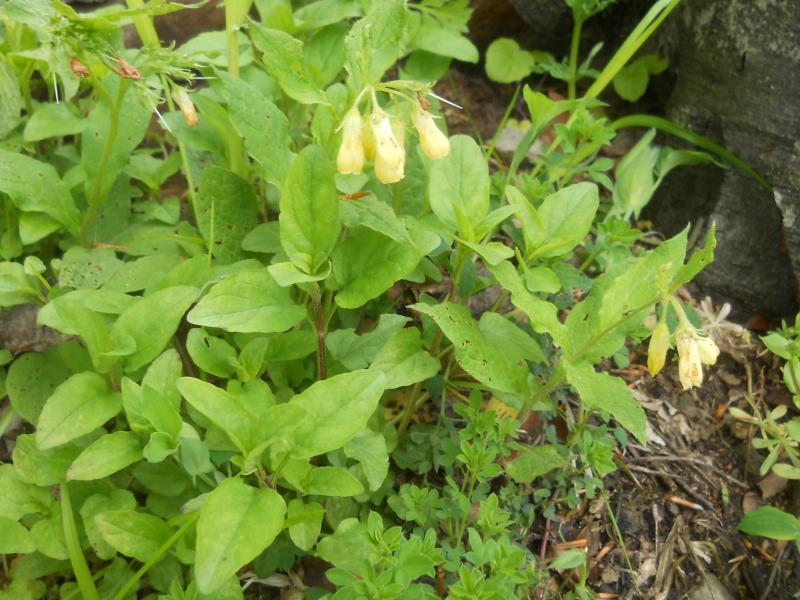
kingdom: Plantae
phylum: Tracheophyta
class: Magnoliopsida
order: Boraginales
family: Boraginaceae
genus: Symphytum
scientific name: Symphytum tuberosum
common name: Tuberous comfrey
